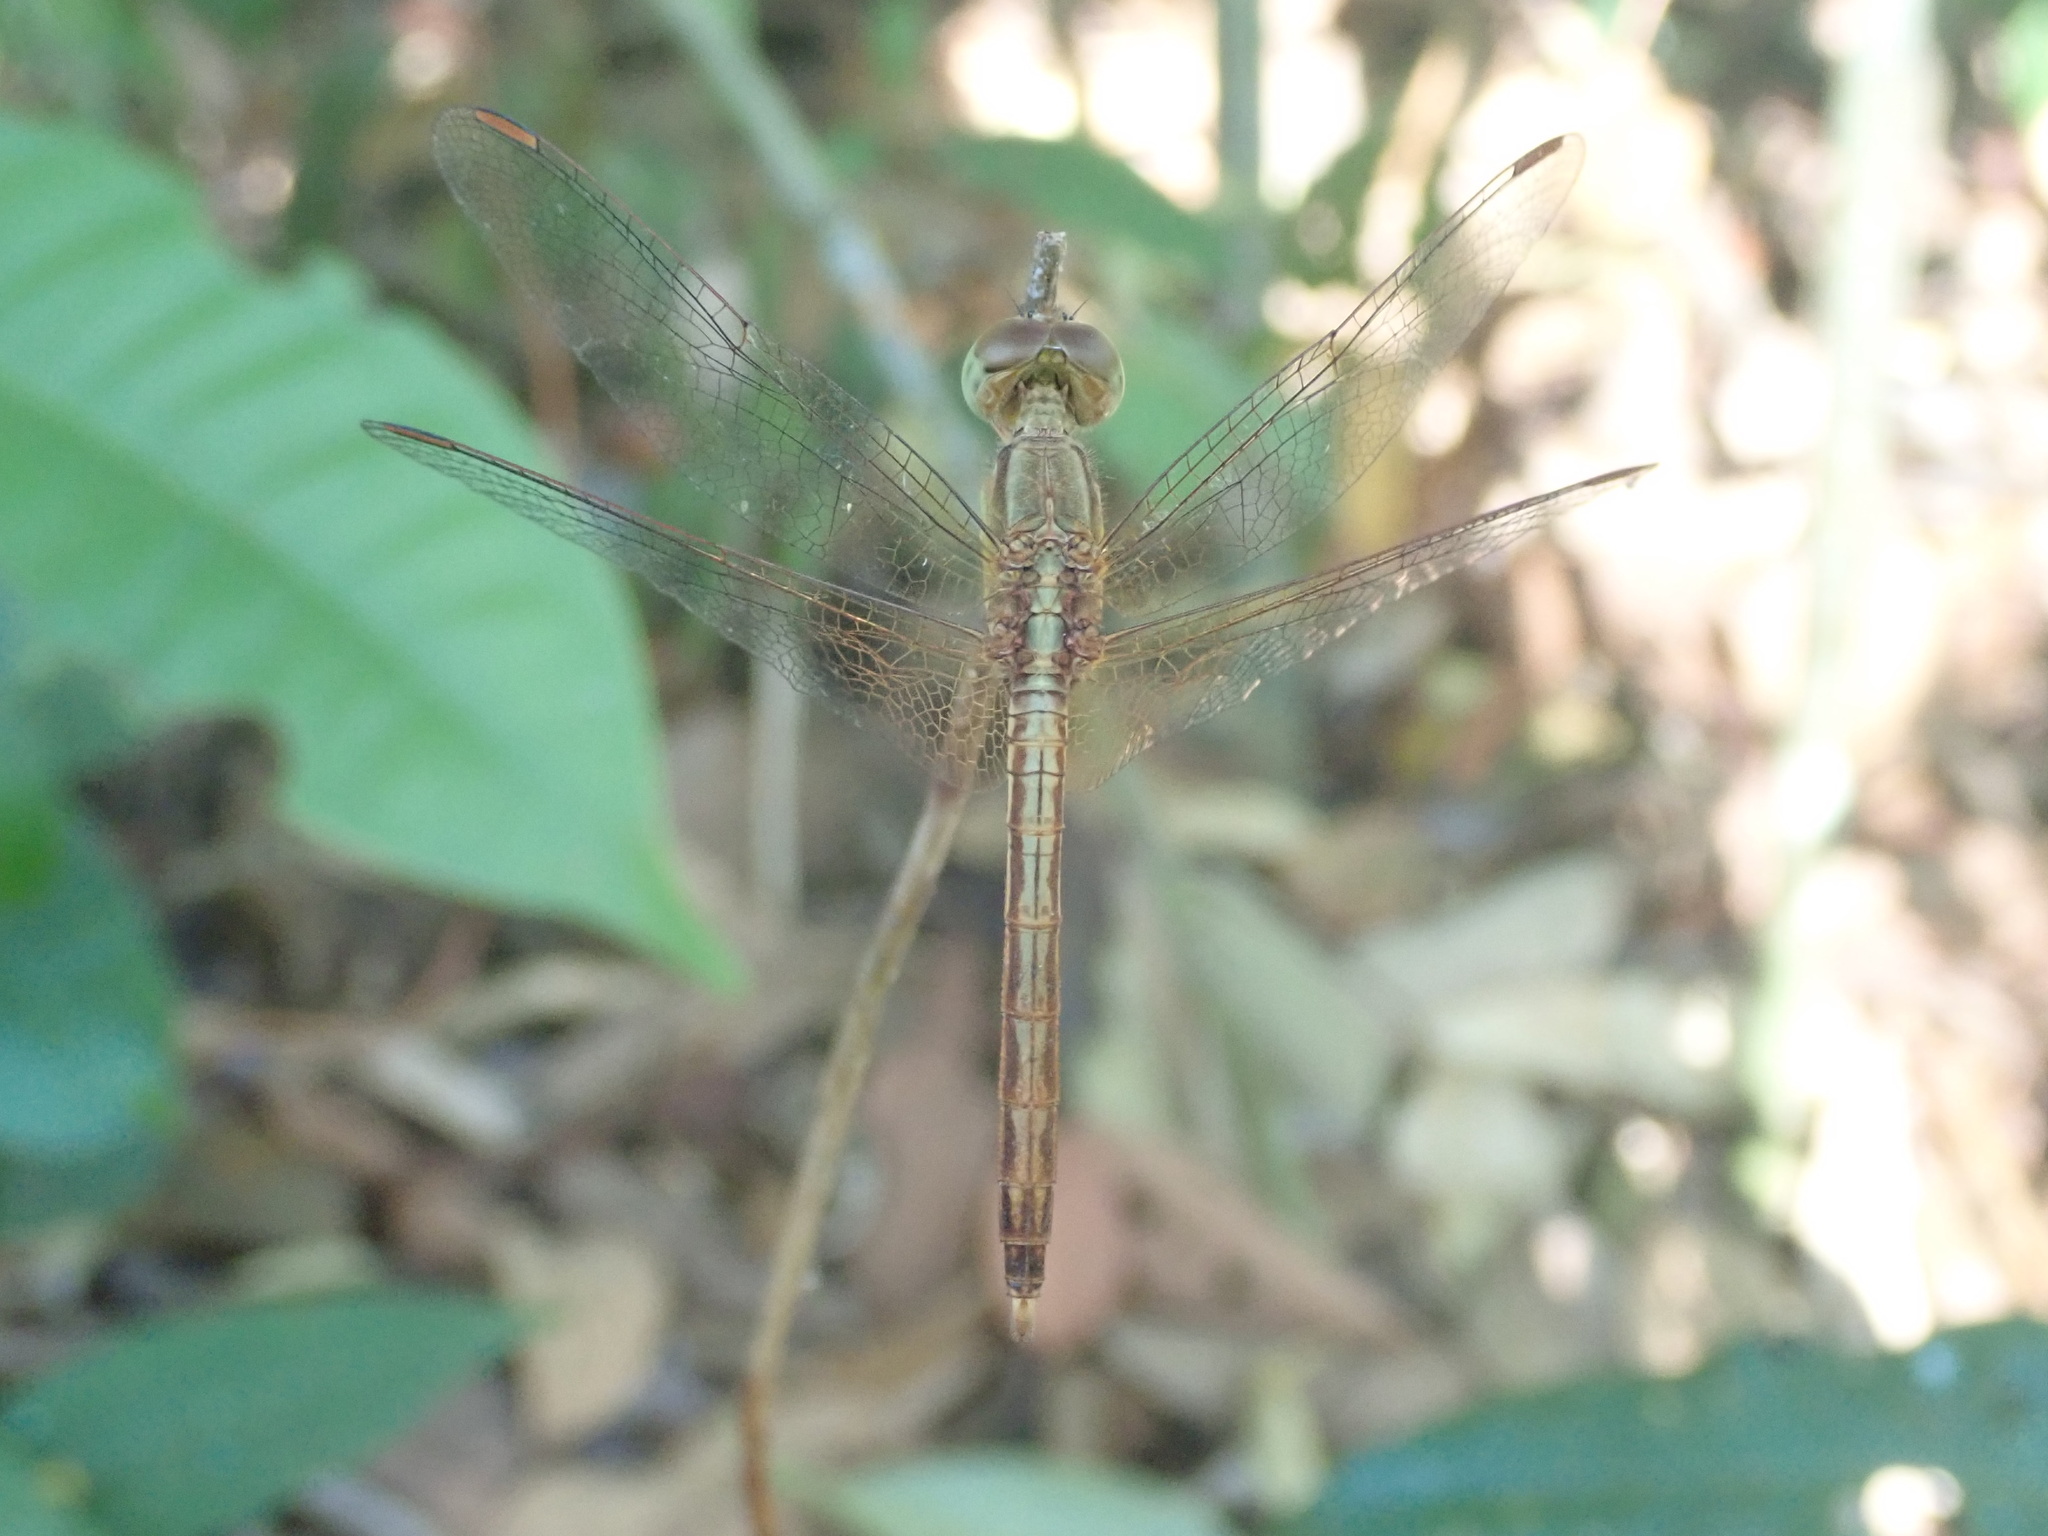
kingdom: Animalia
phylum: Arthropoda
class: Insecta
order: Odonata
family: Libellulidae
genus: Neurothemis
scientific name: Neurothemis intermedia
